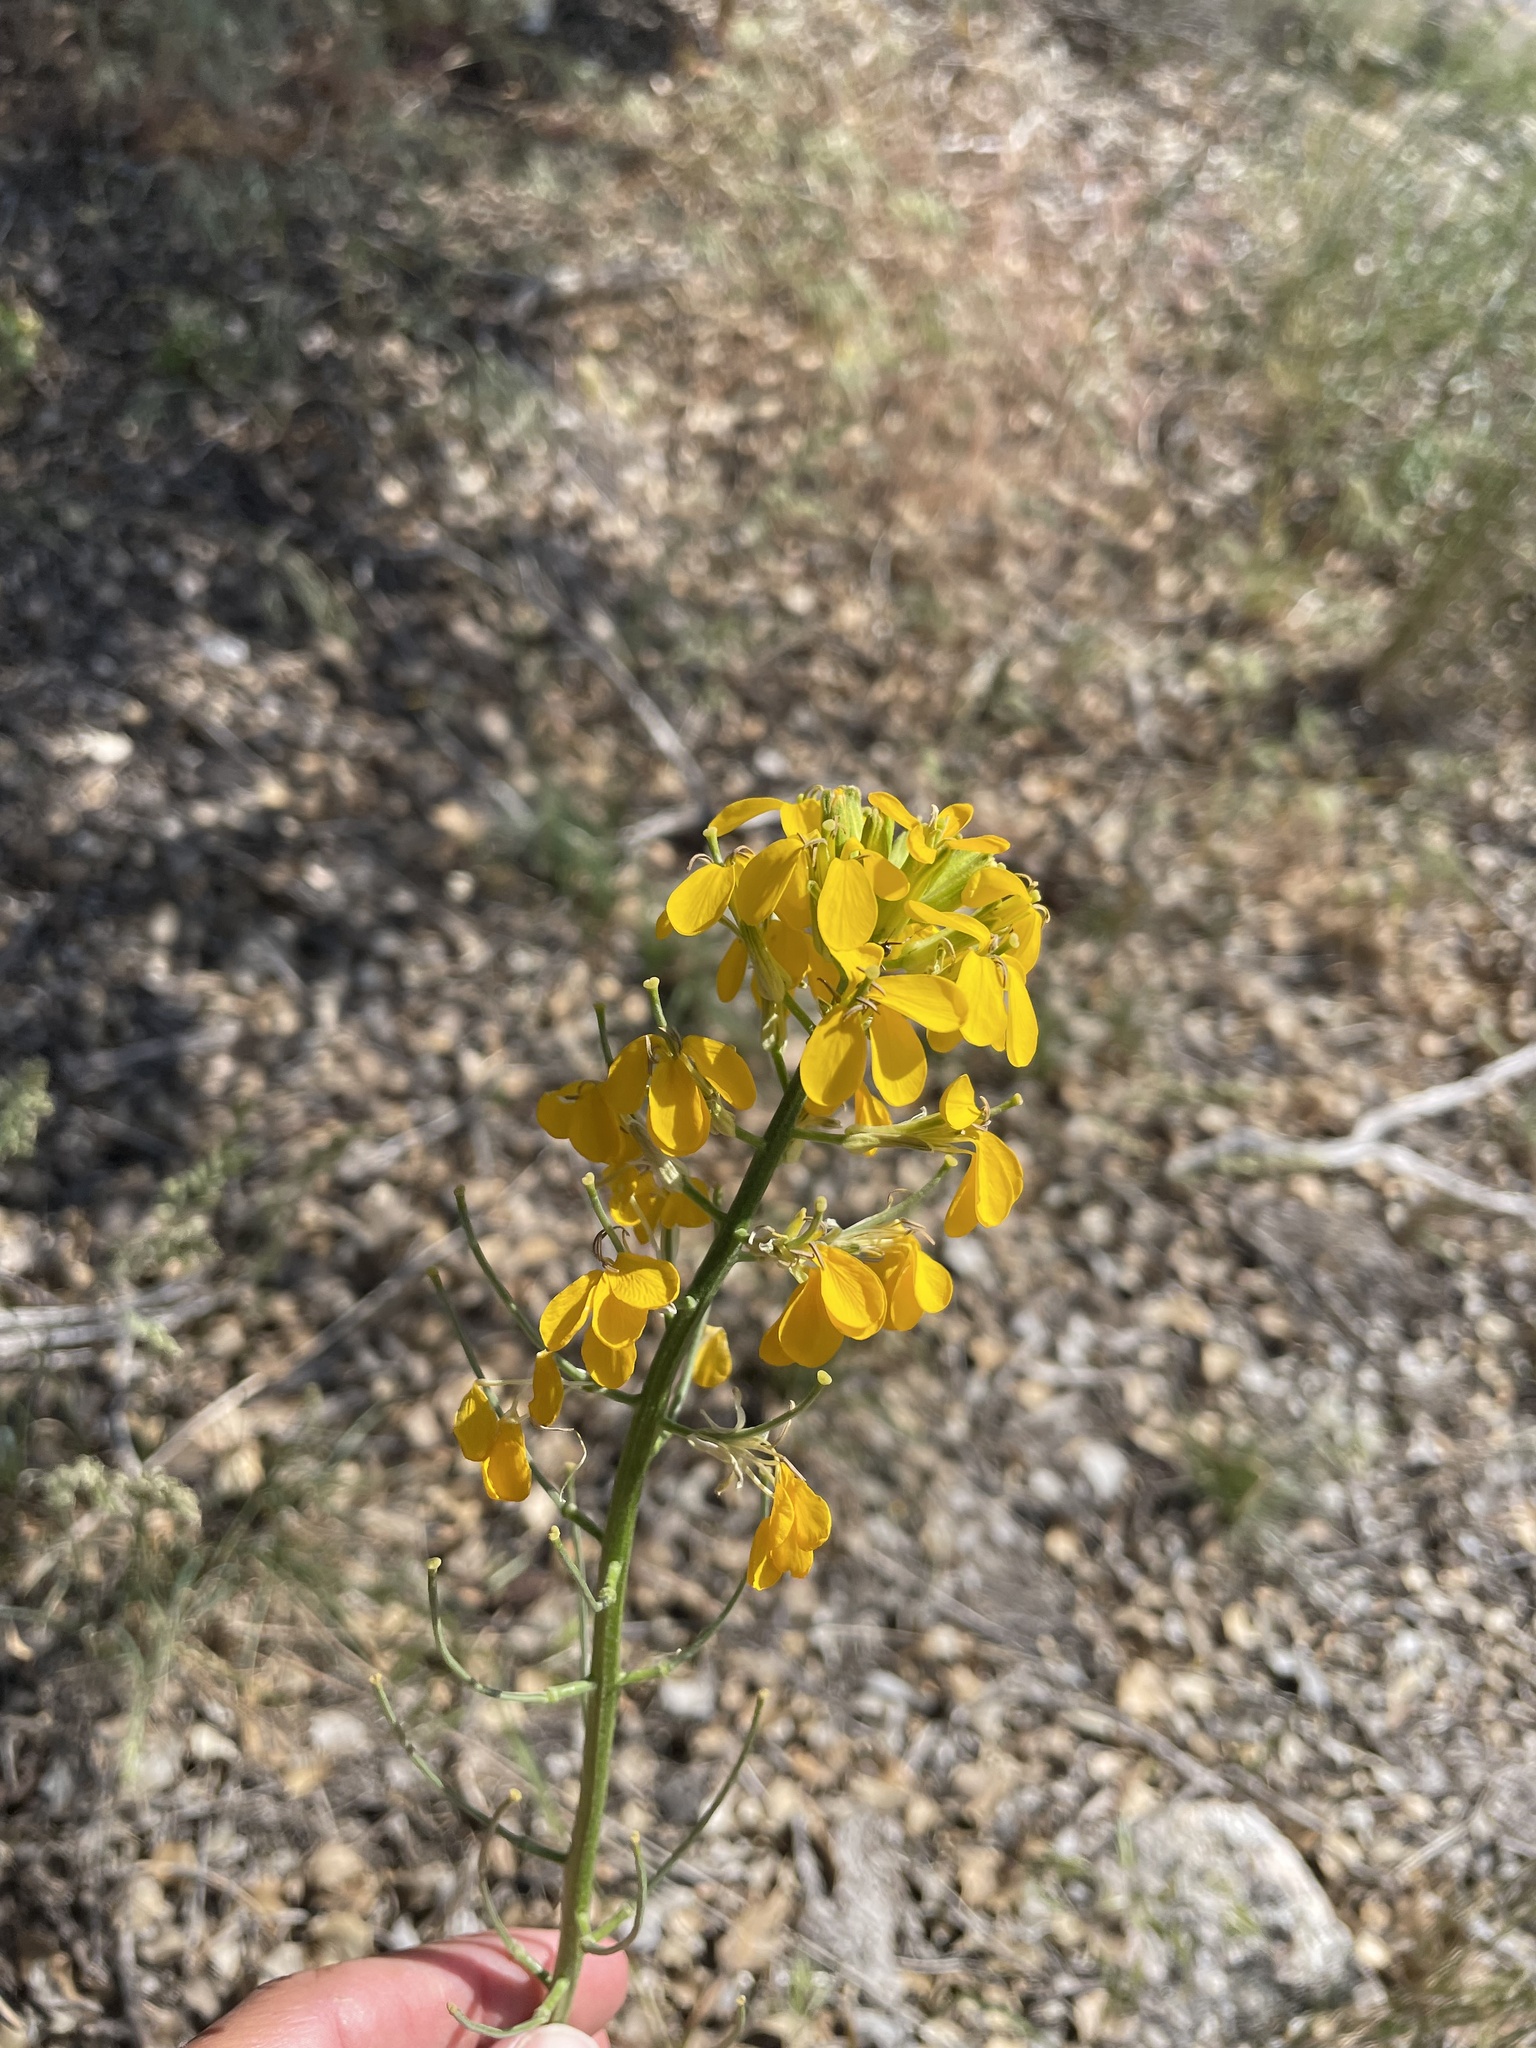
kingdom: Plantae
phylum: Tracheophyta
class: Magnoliopsida
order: Brassicales
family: Brassicaceae
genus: Erysimum
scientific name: Erysimum capitatum
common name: Western wallflower
